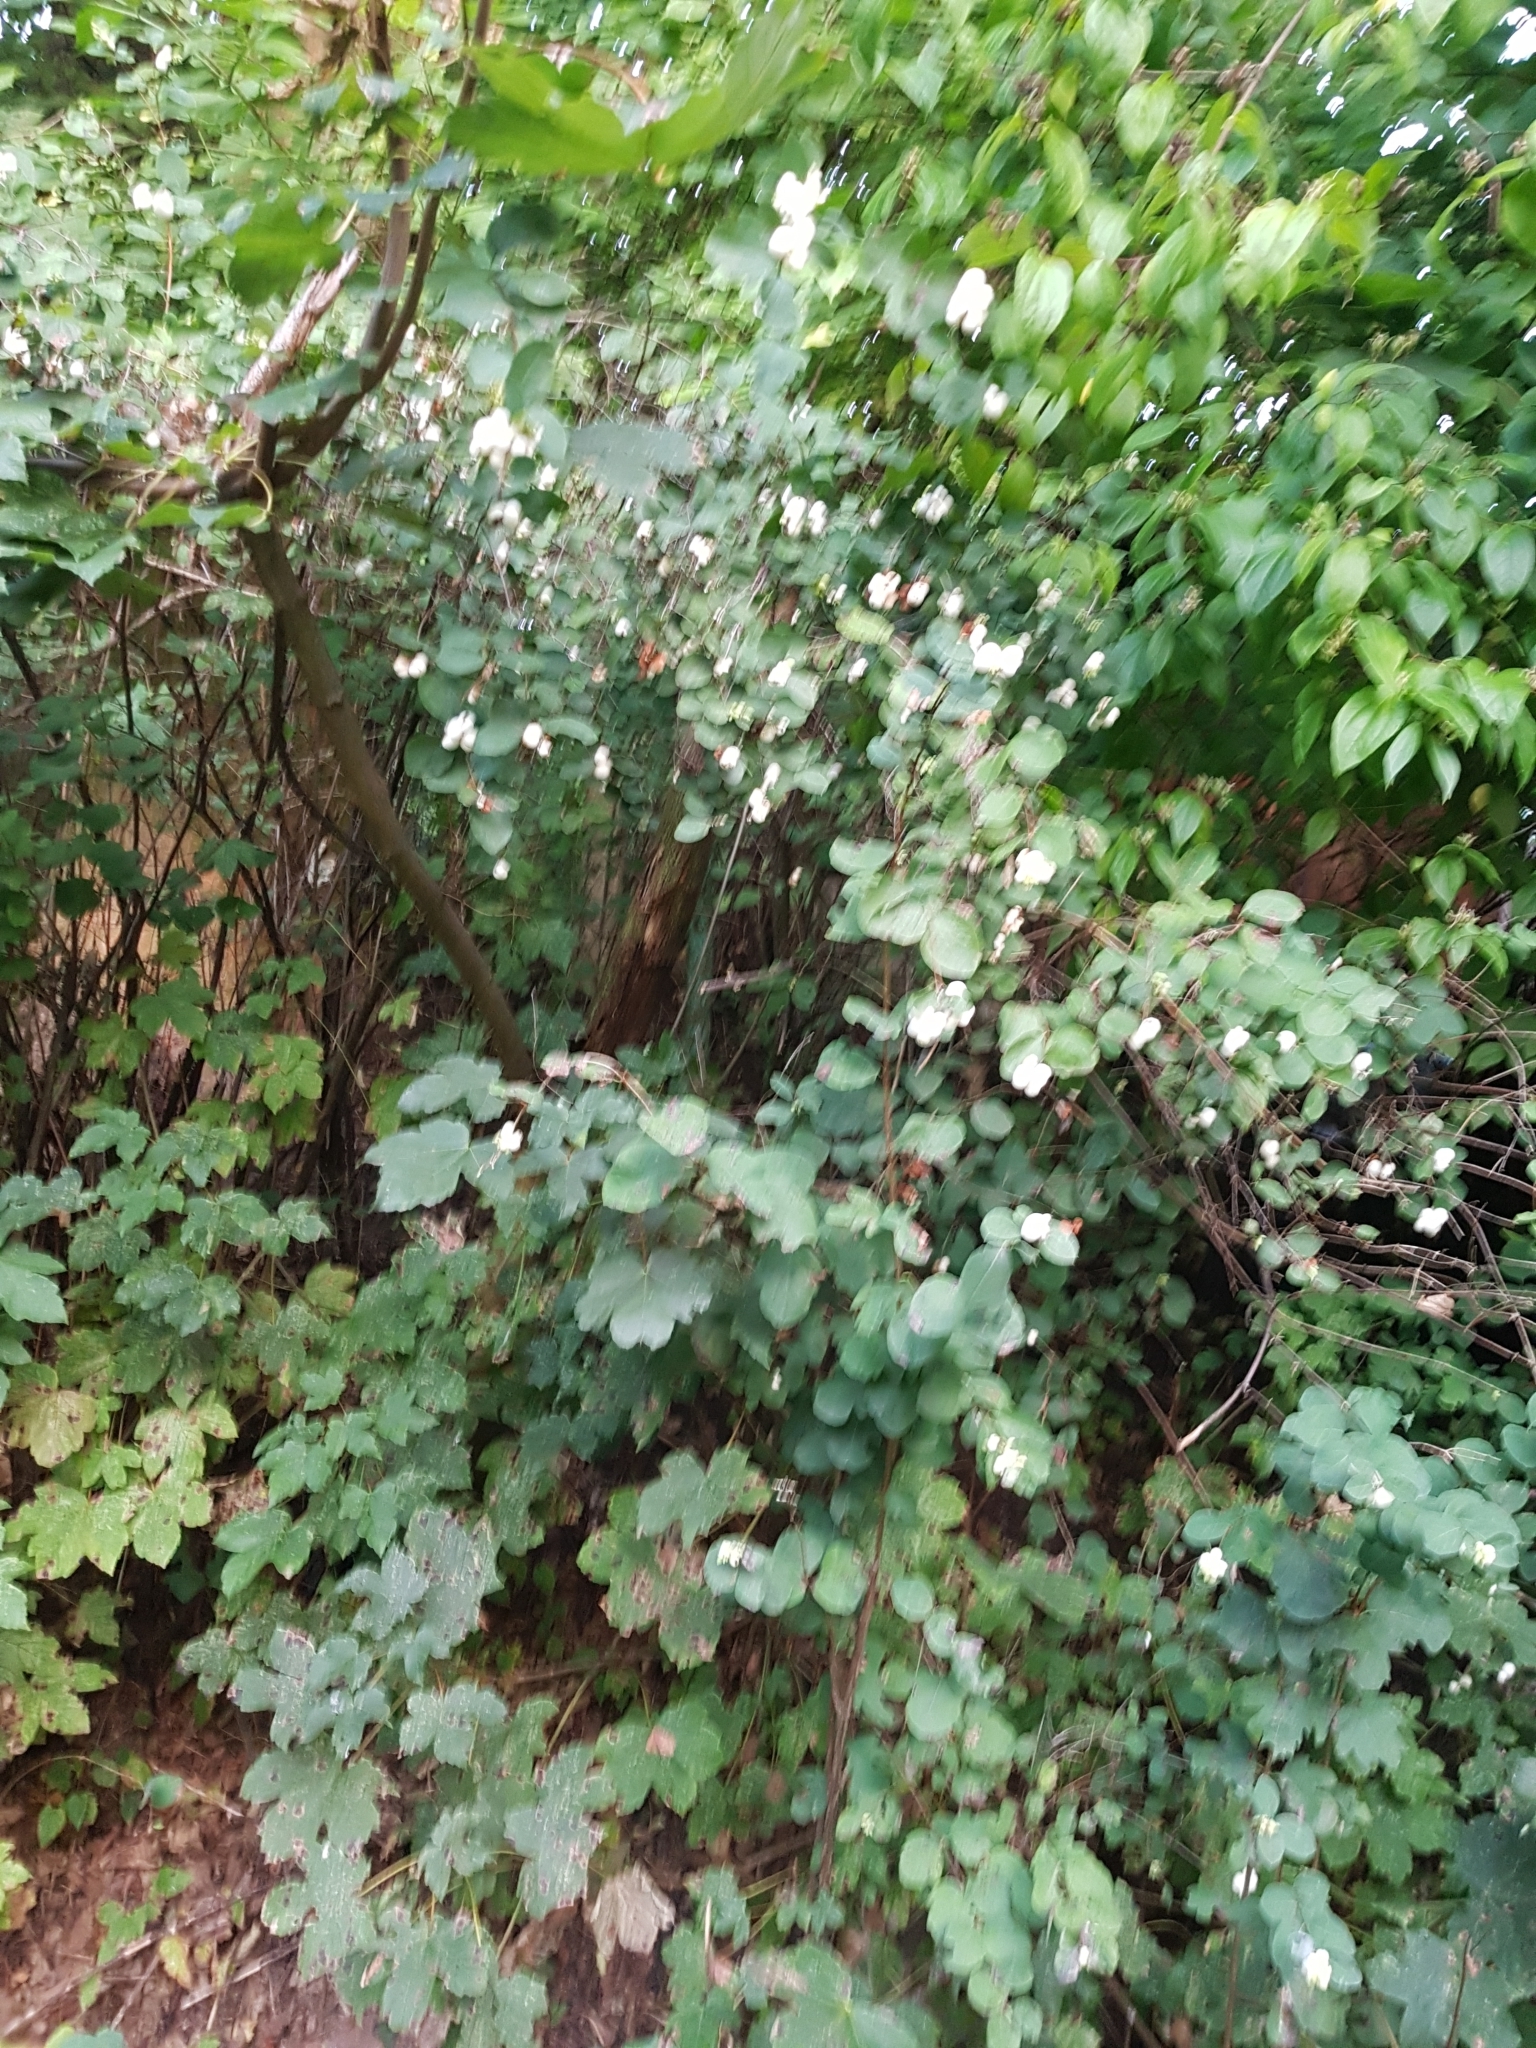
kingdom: Plantae
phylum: Tracheophyta
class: Magnoliopsida
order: Dipsacales
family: Caprifoliaceae
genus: Symphoricarpos
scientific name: Symphoricarpos albus
